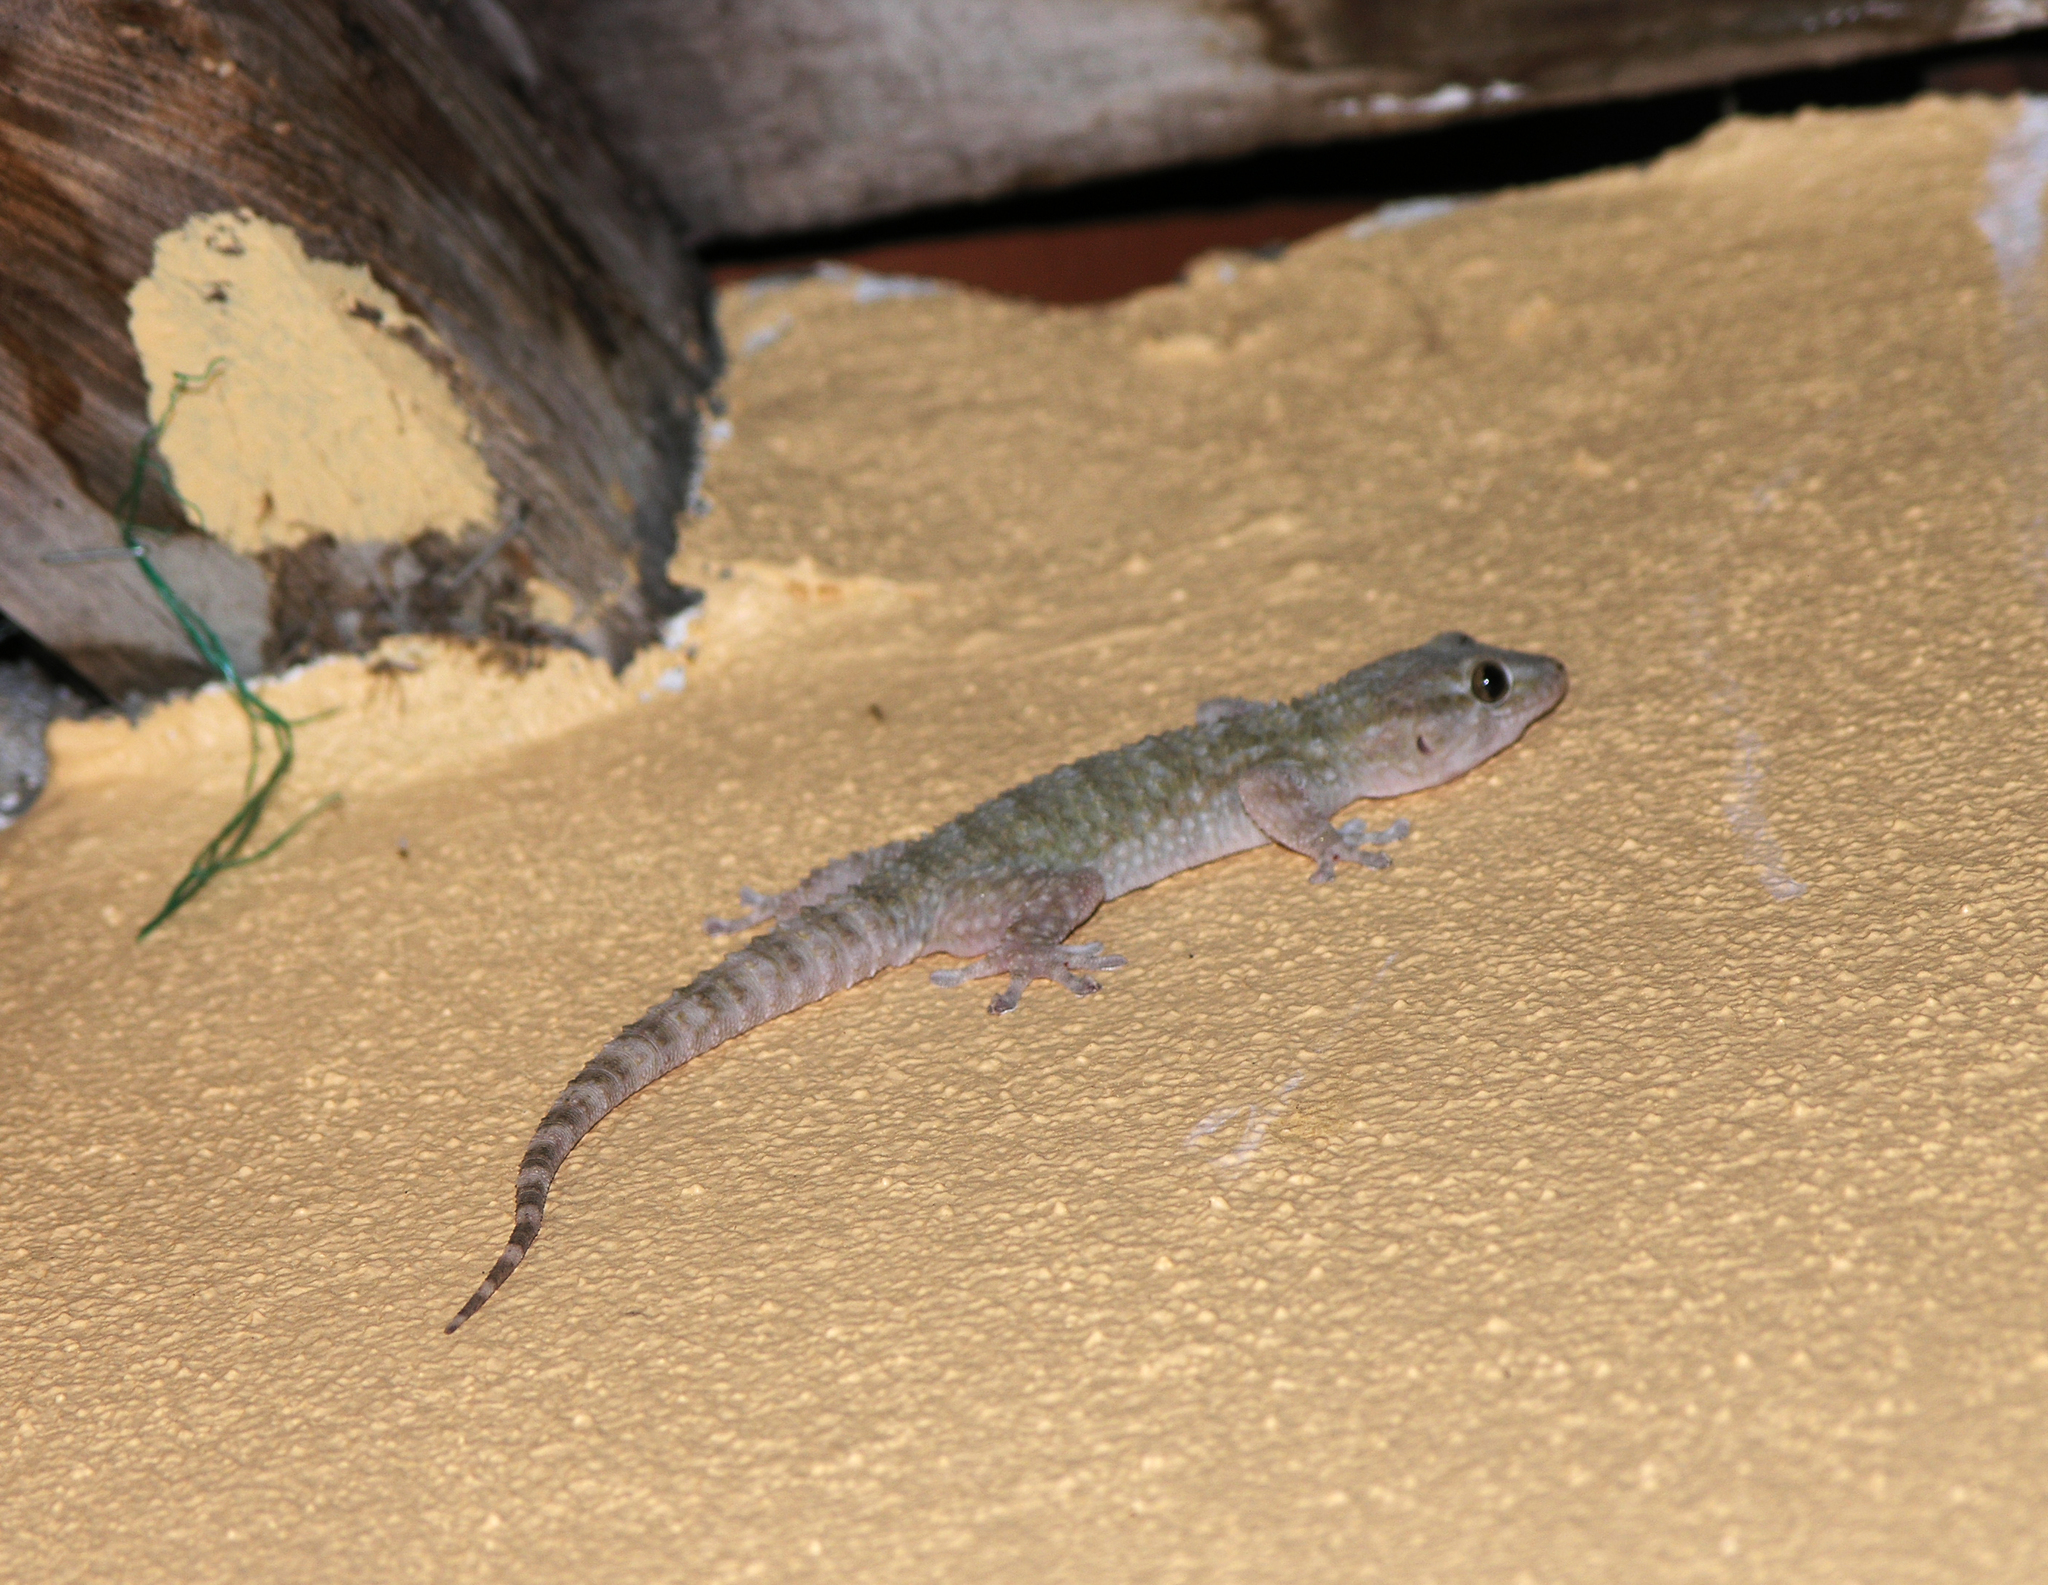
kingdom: Animalia
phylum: Chordata
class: Squamata
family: Phyllodactylidae
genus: Tarentola
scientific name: Tarentola mauritanica
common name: Moorish gecko
